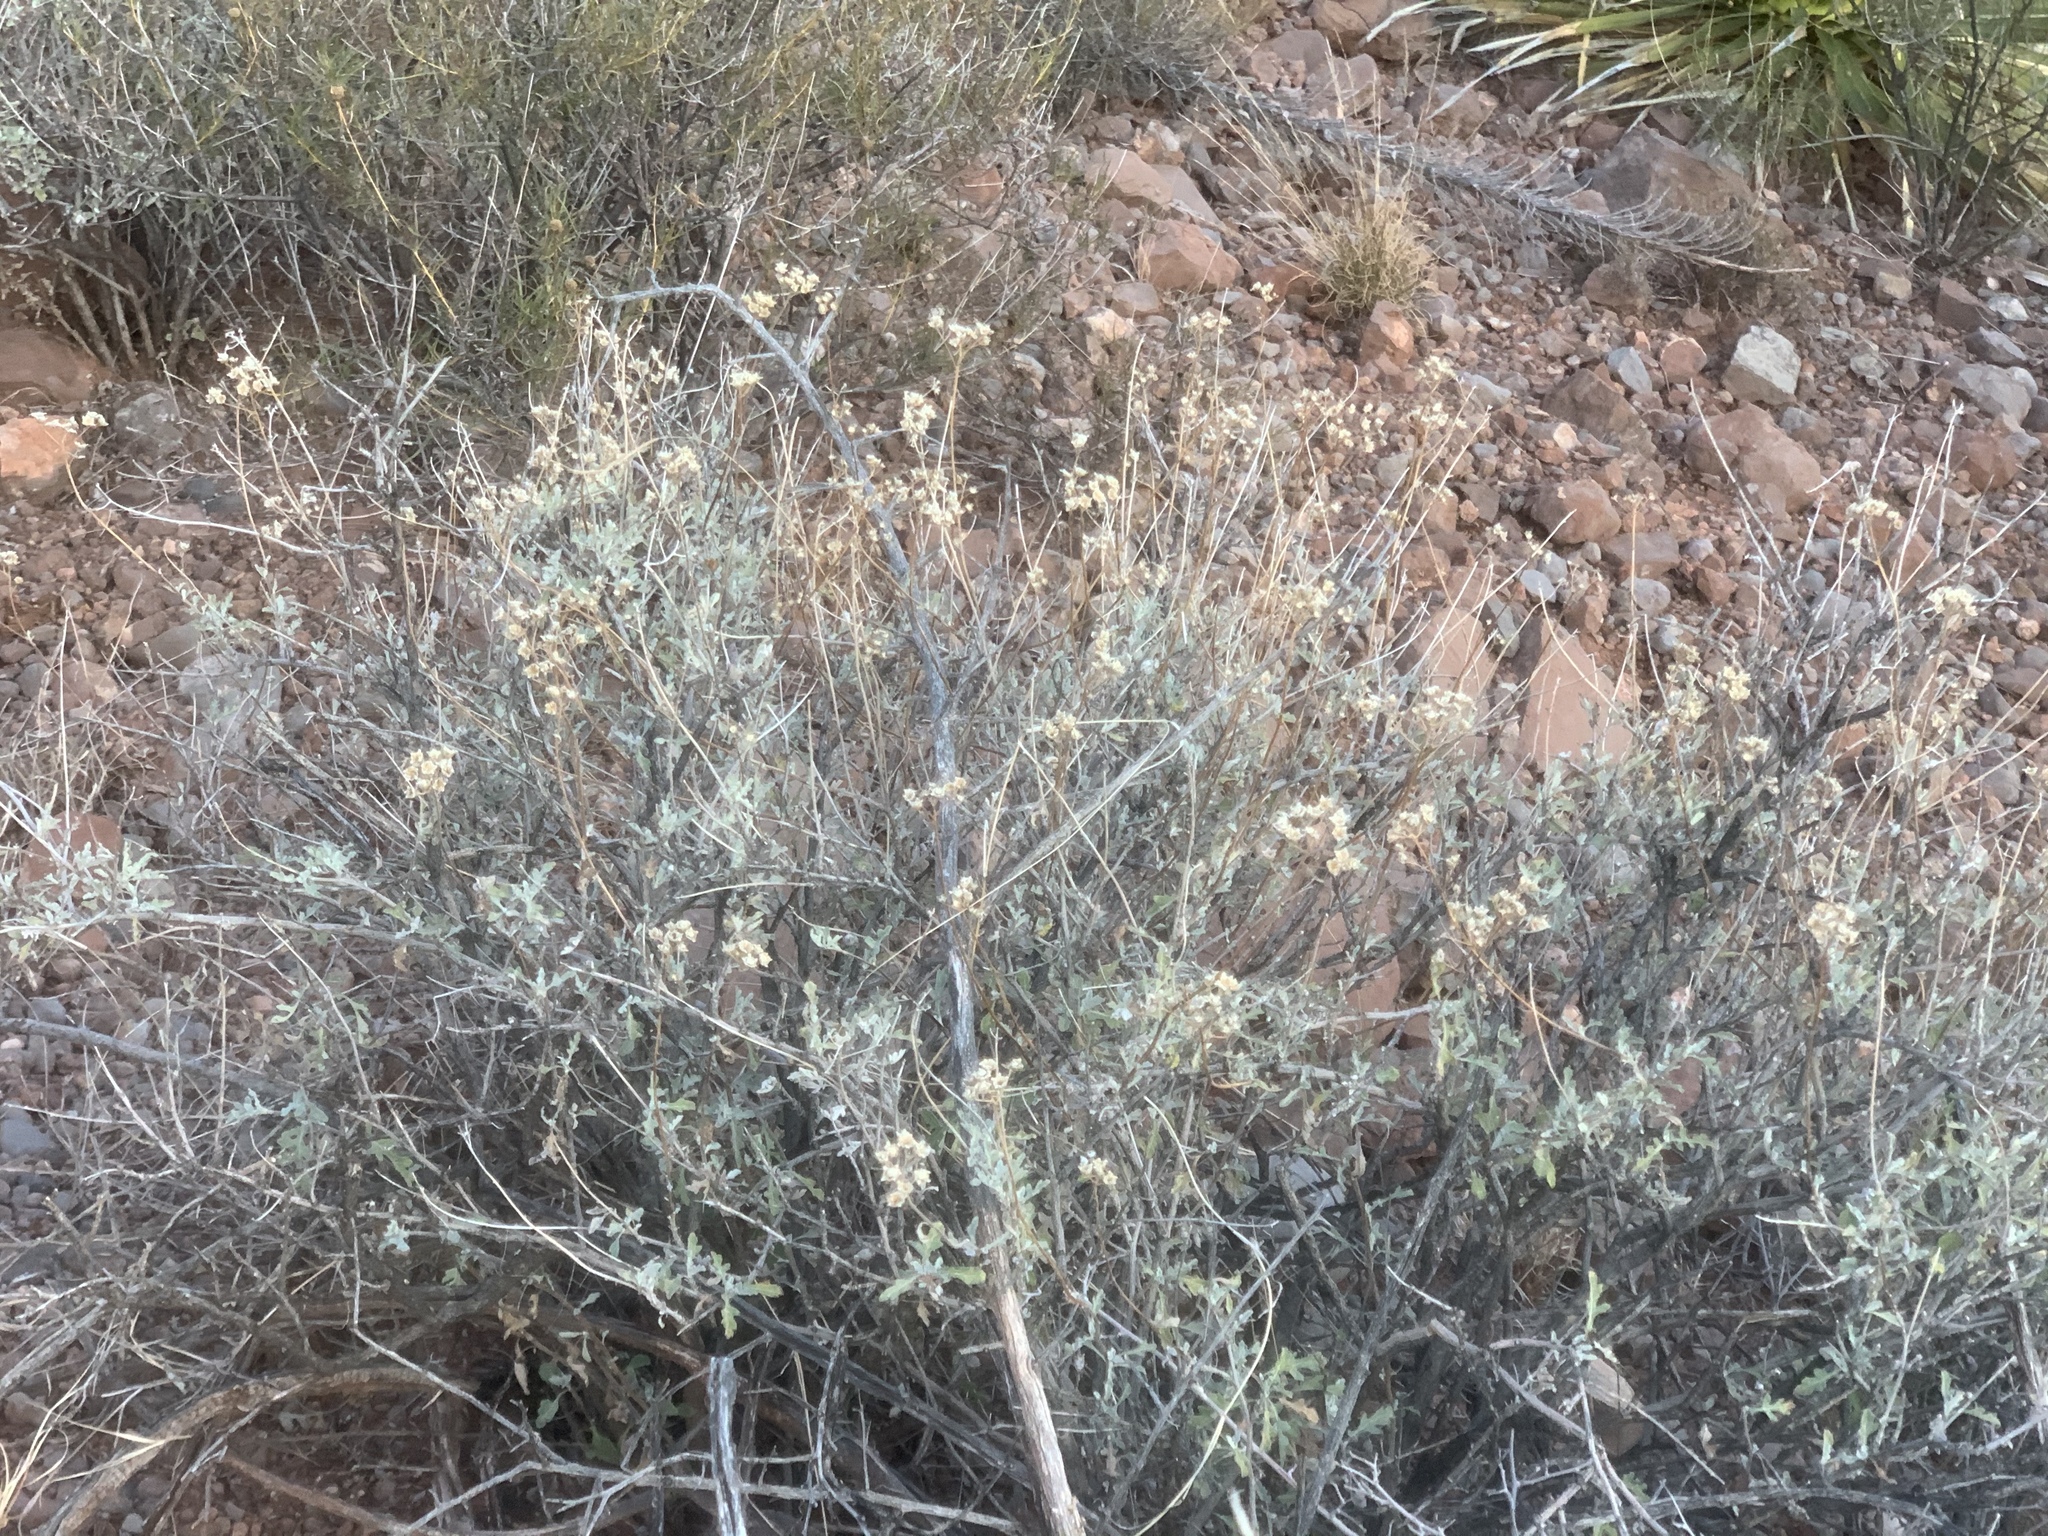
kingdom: Plantae
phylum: Tracheophyta
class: Magnoliopsida
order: Asterales
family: Asteraceae
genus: Parthenium
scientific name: Parthenium incanum
